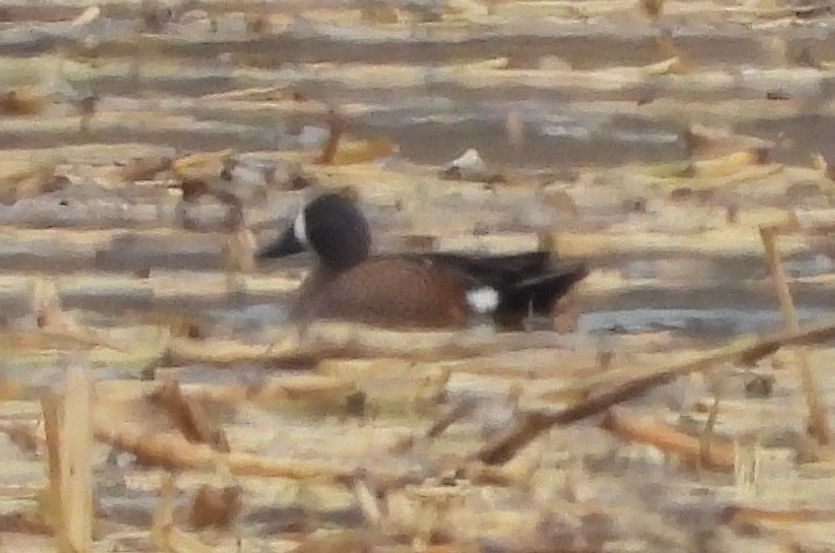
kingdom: Animalia
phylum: Chordata
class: Aves
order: Anseriformes
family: Anatidae
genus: Spatula
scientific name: Spatula discors
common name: Blue-winged teal
